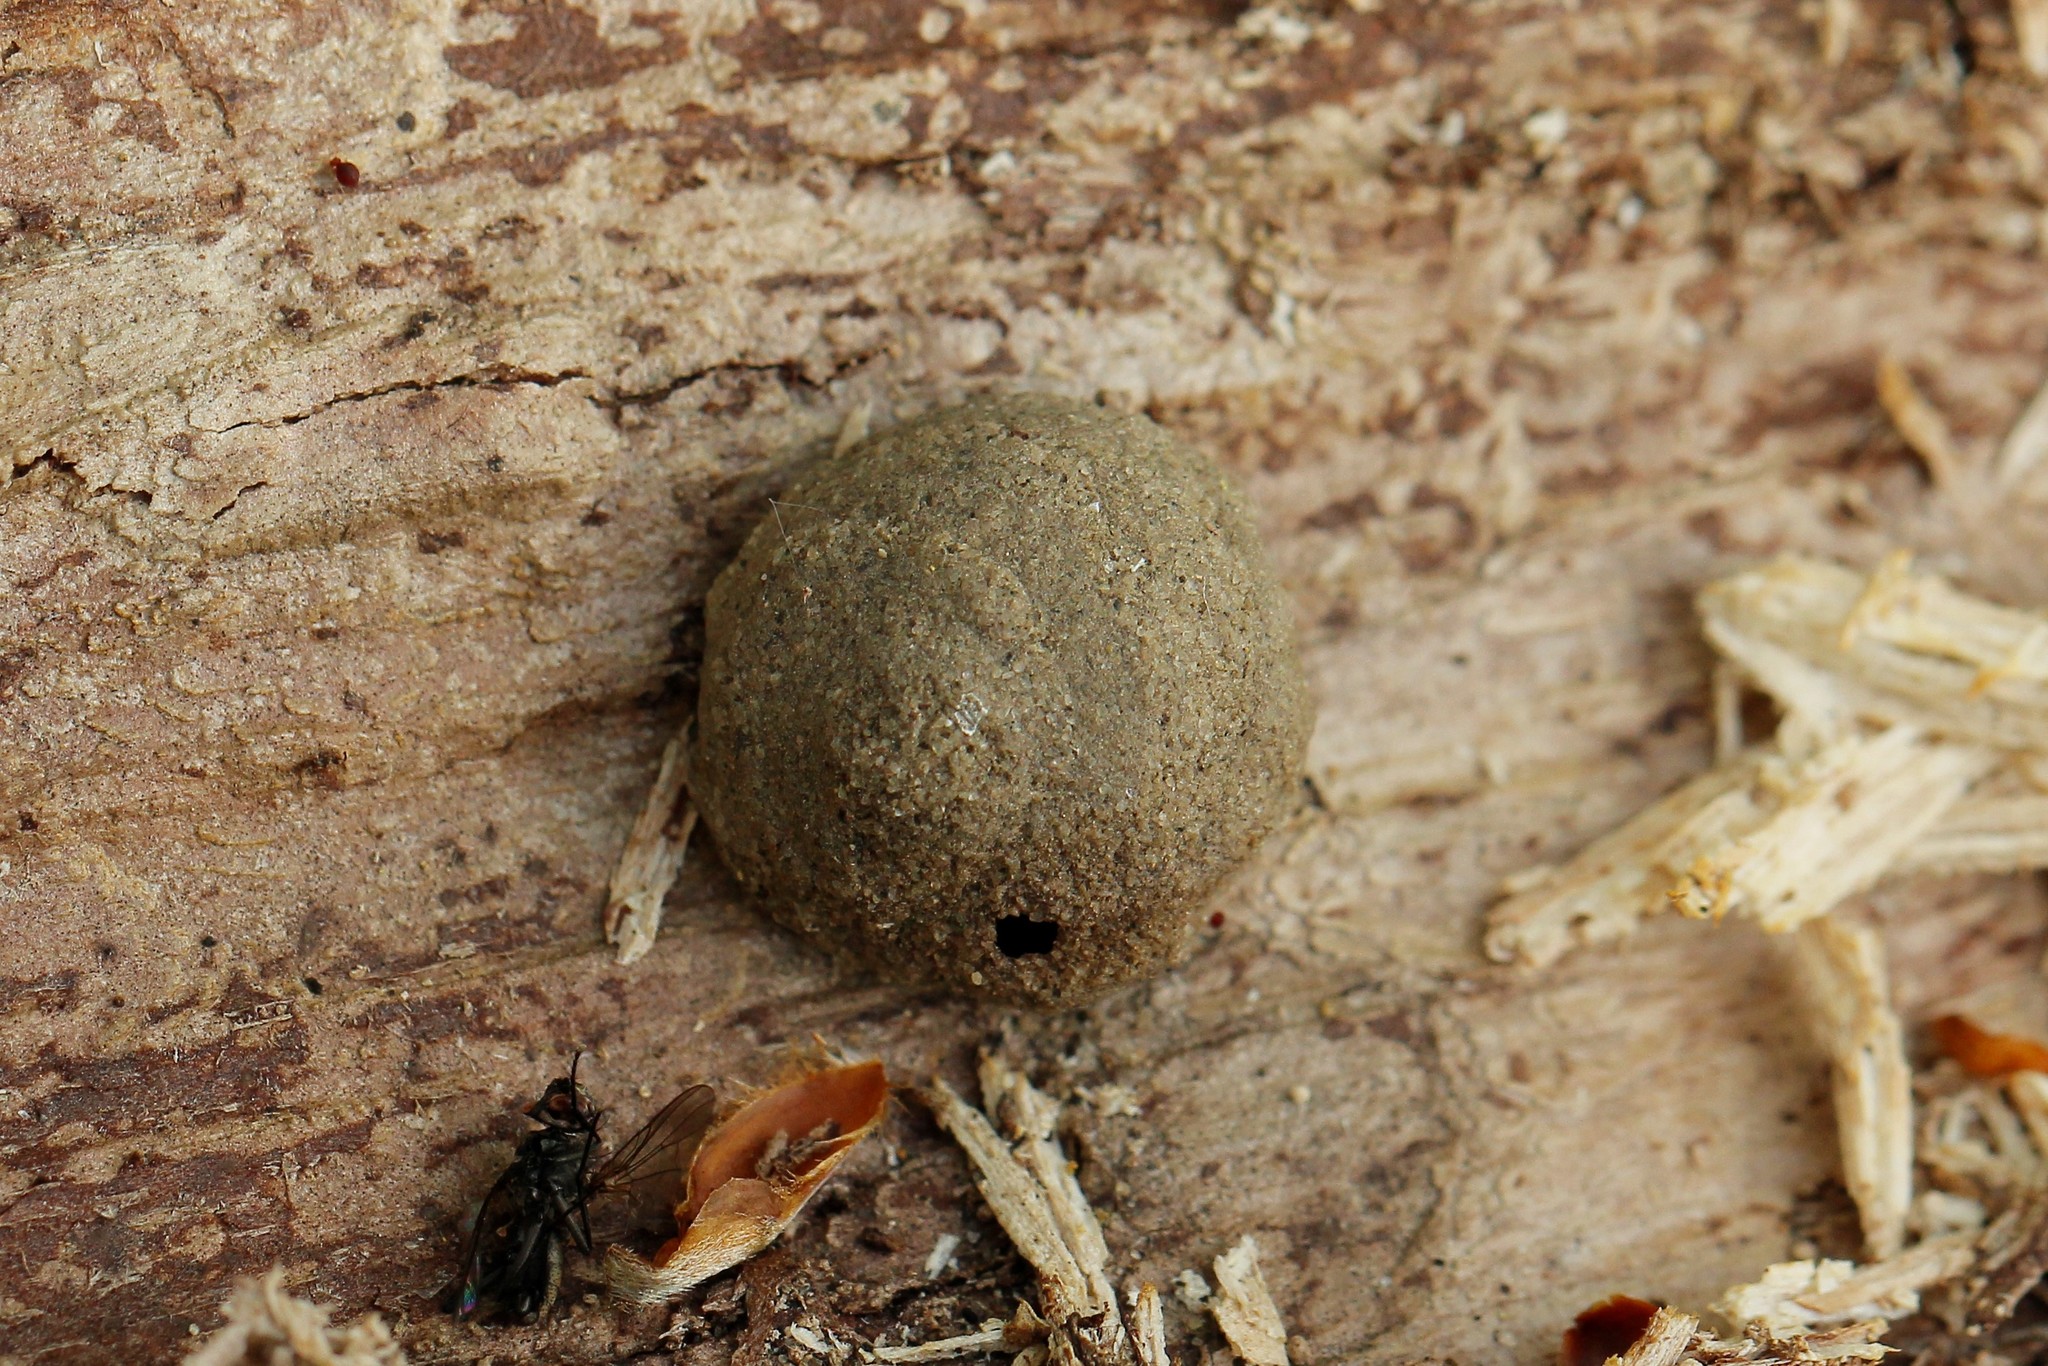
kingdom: Animalia
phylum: Arthropoda
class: Insecta
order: Hymenoptera
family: Eumenidae
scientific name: Eumenidae
